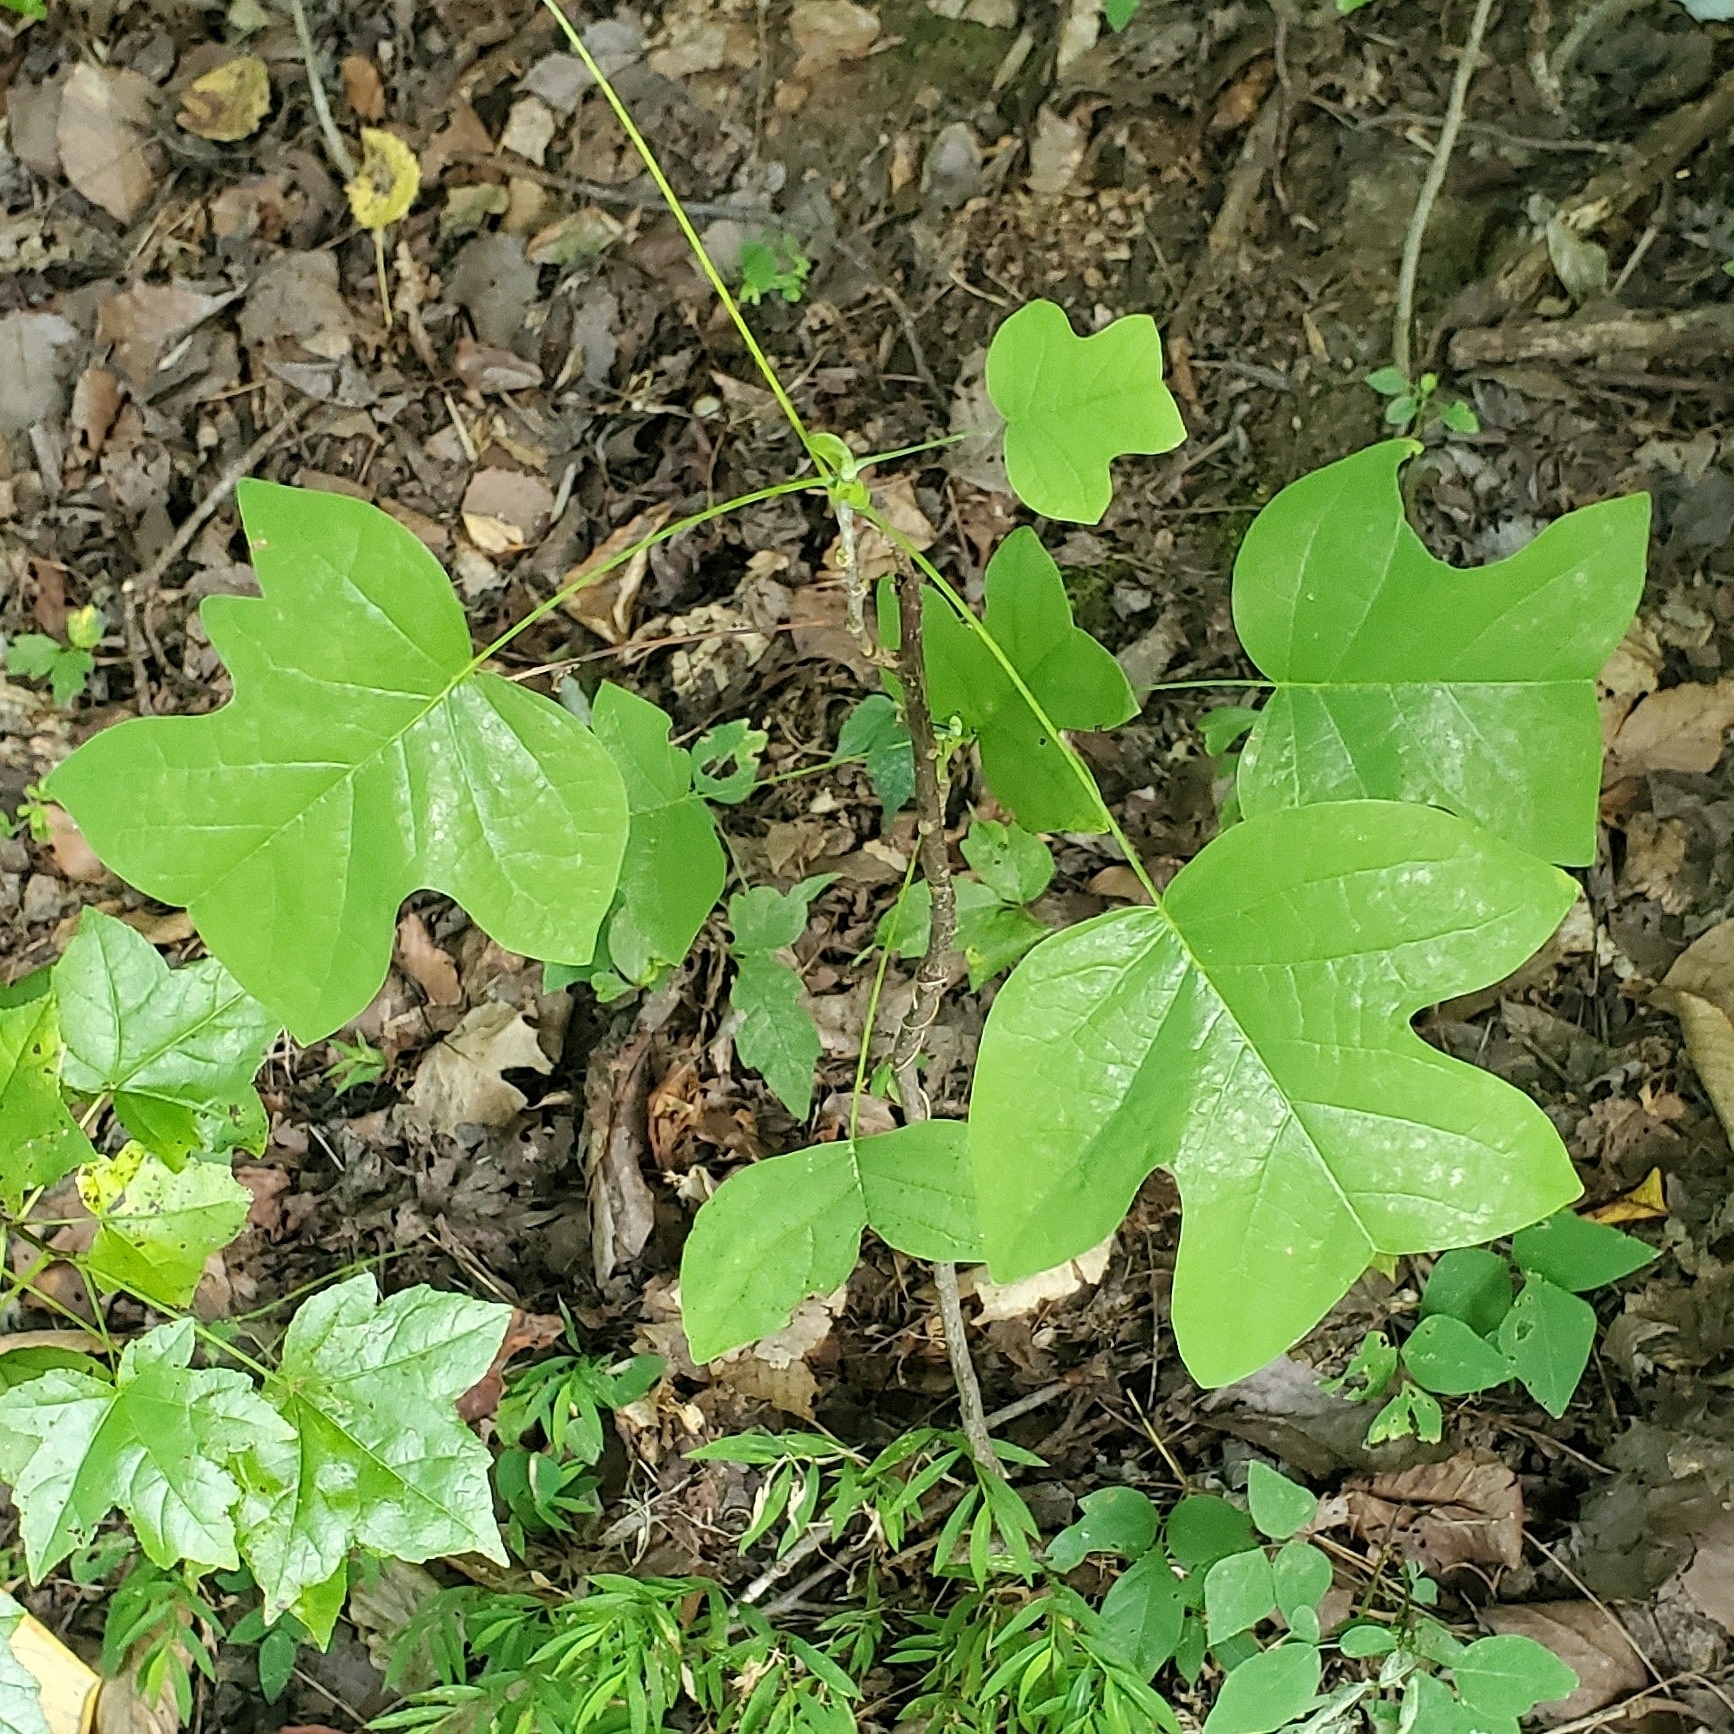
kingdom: Plantae
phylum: Tracheophyta
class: Magnoliopsida
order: Magnoliales
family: Magnoliaceae
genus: Liriodendron
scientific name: Liriodendron tulipifera
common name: Tulip tree
